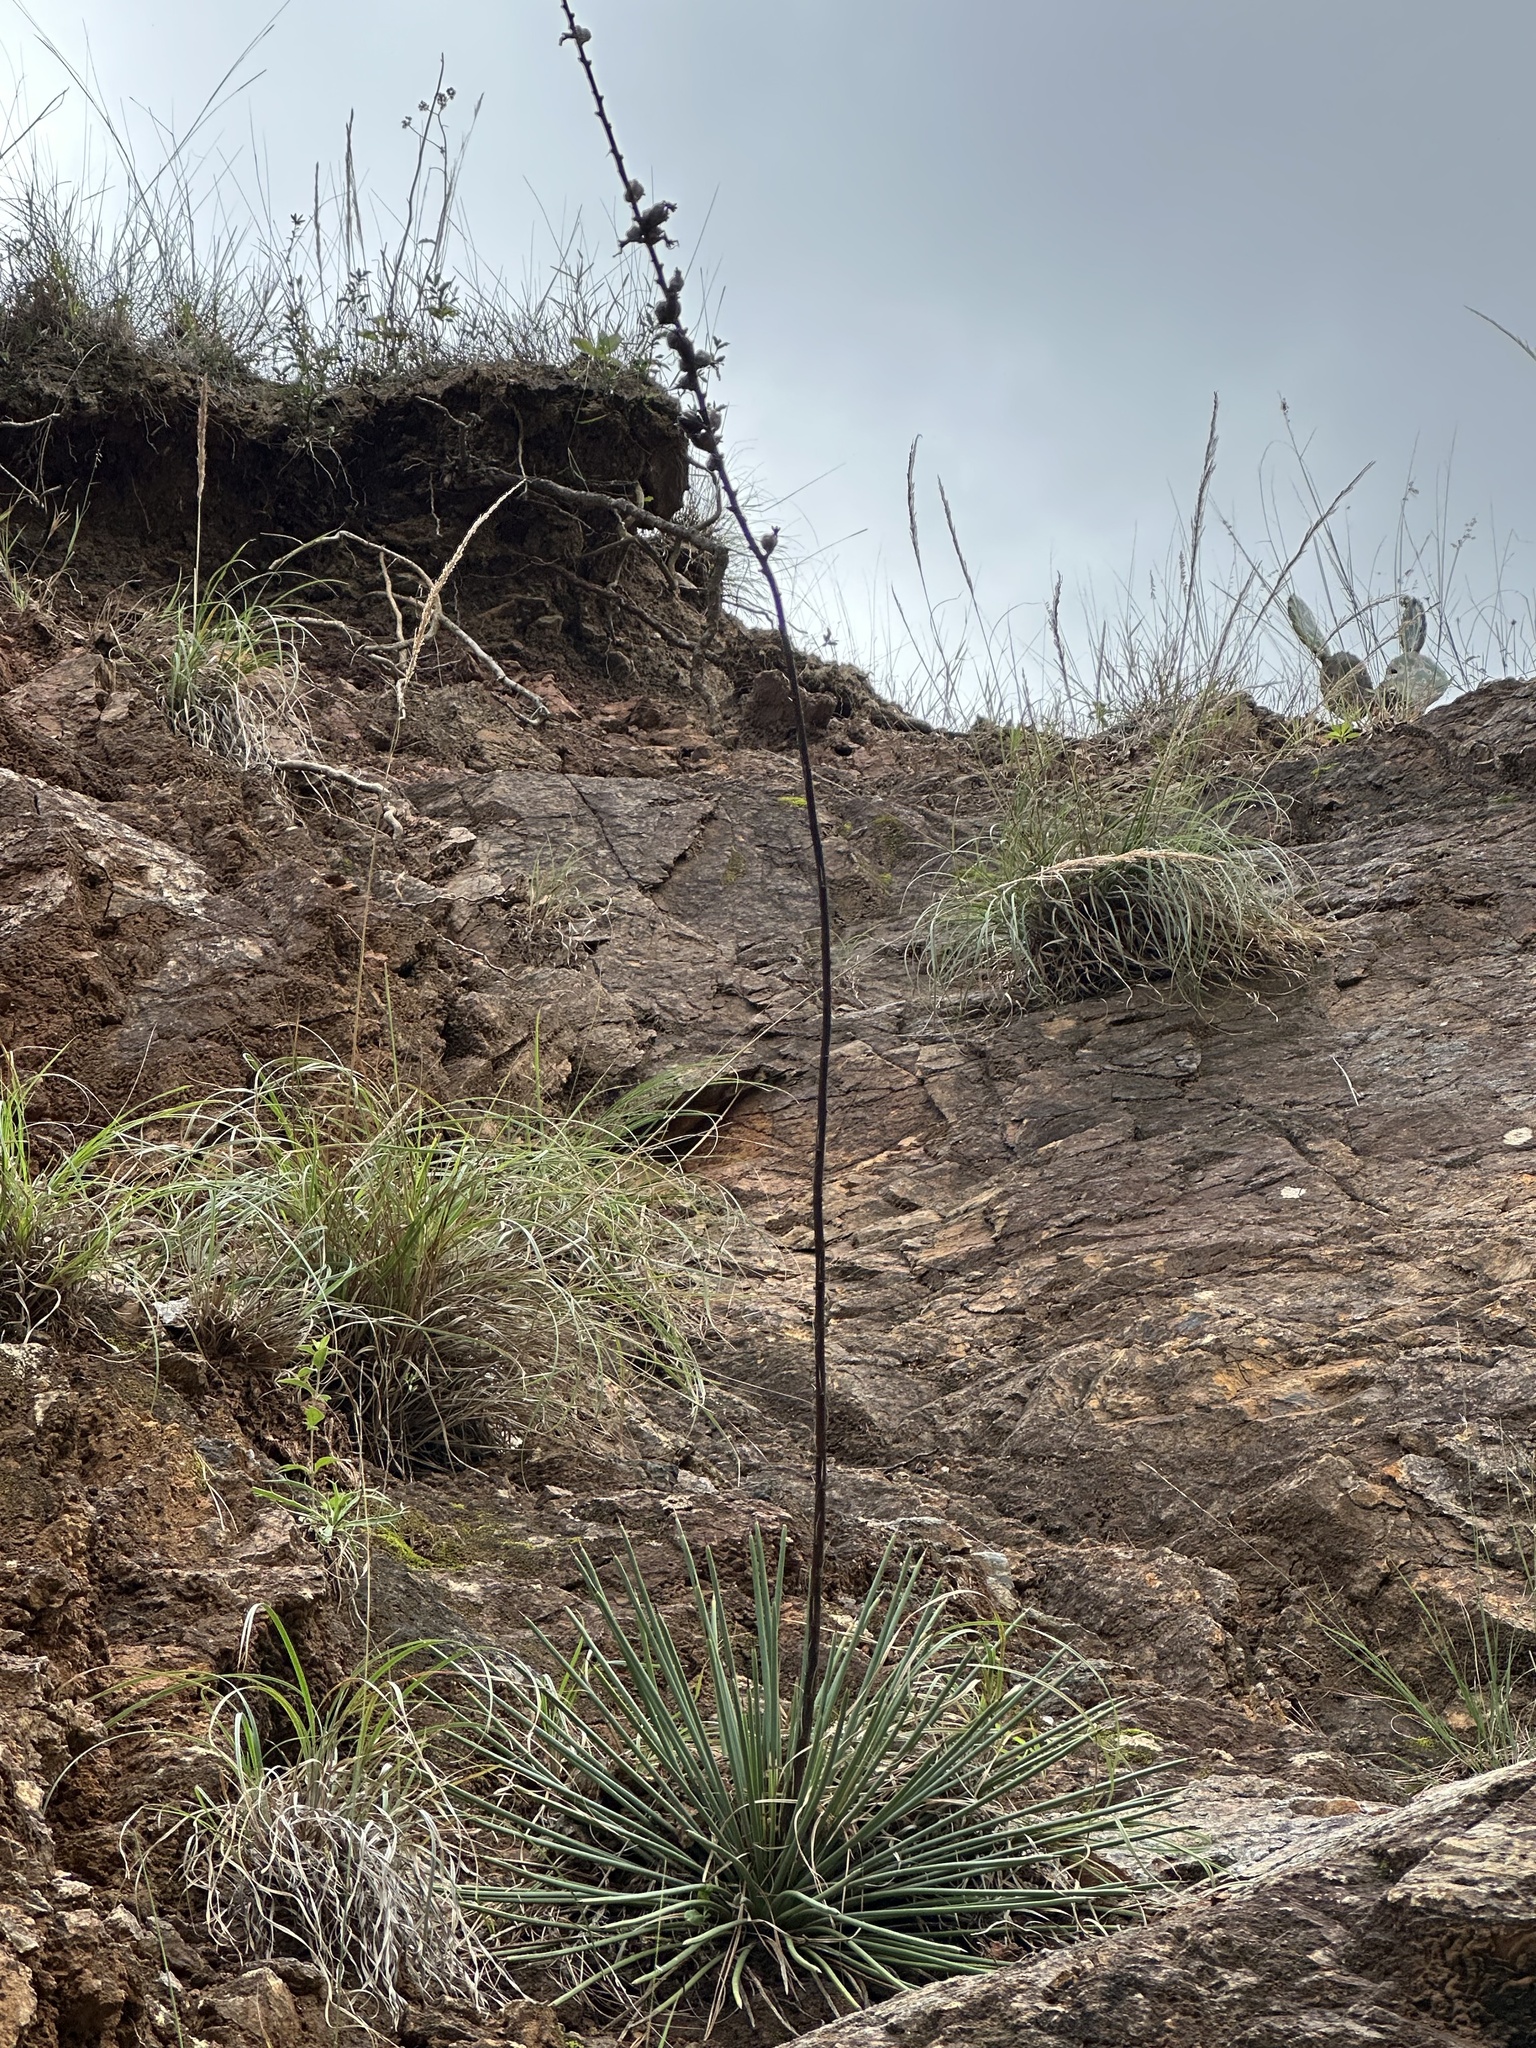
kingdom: Plantae
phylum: Tracheophyta
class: Liliopsida
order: Asparagales
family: Asparagaceae
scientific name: Asparagaceae
